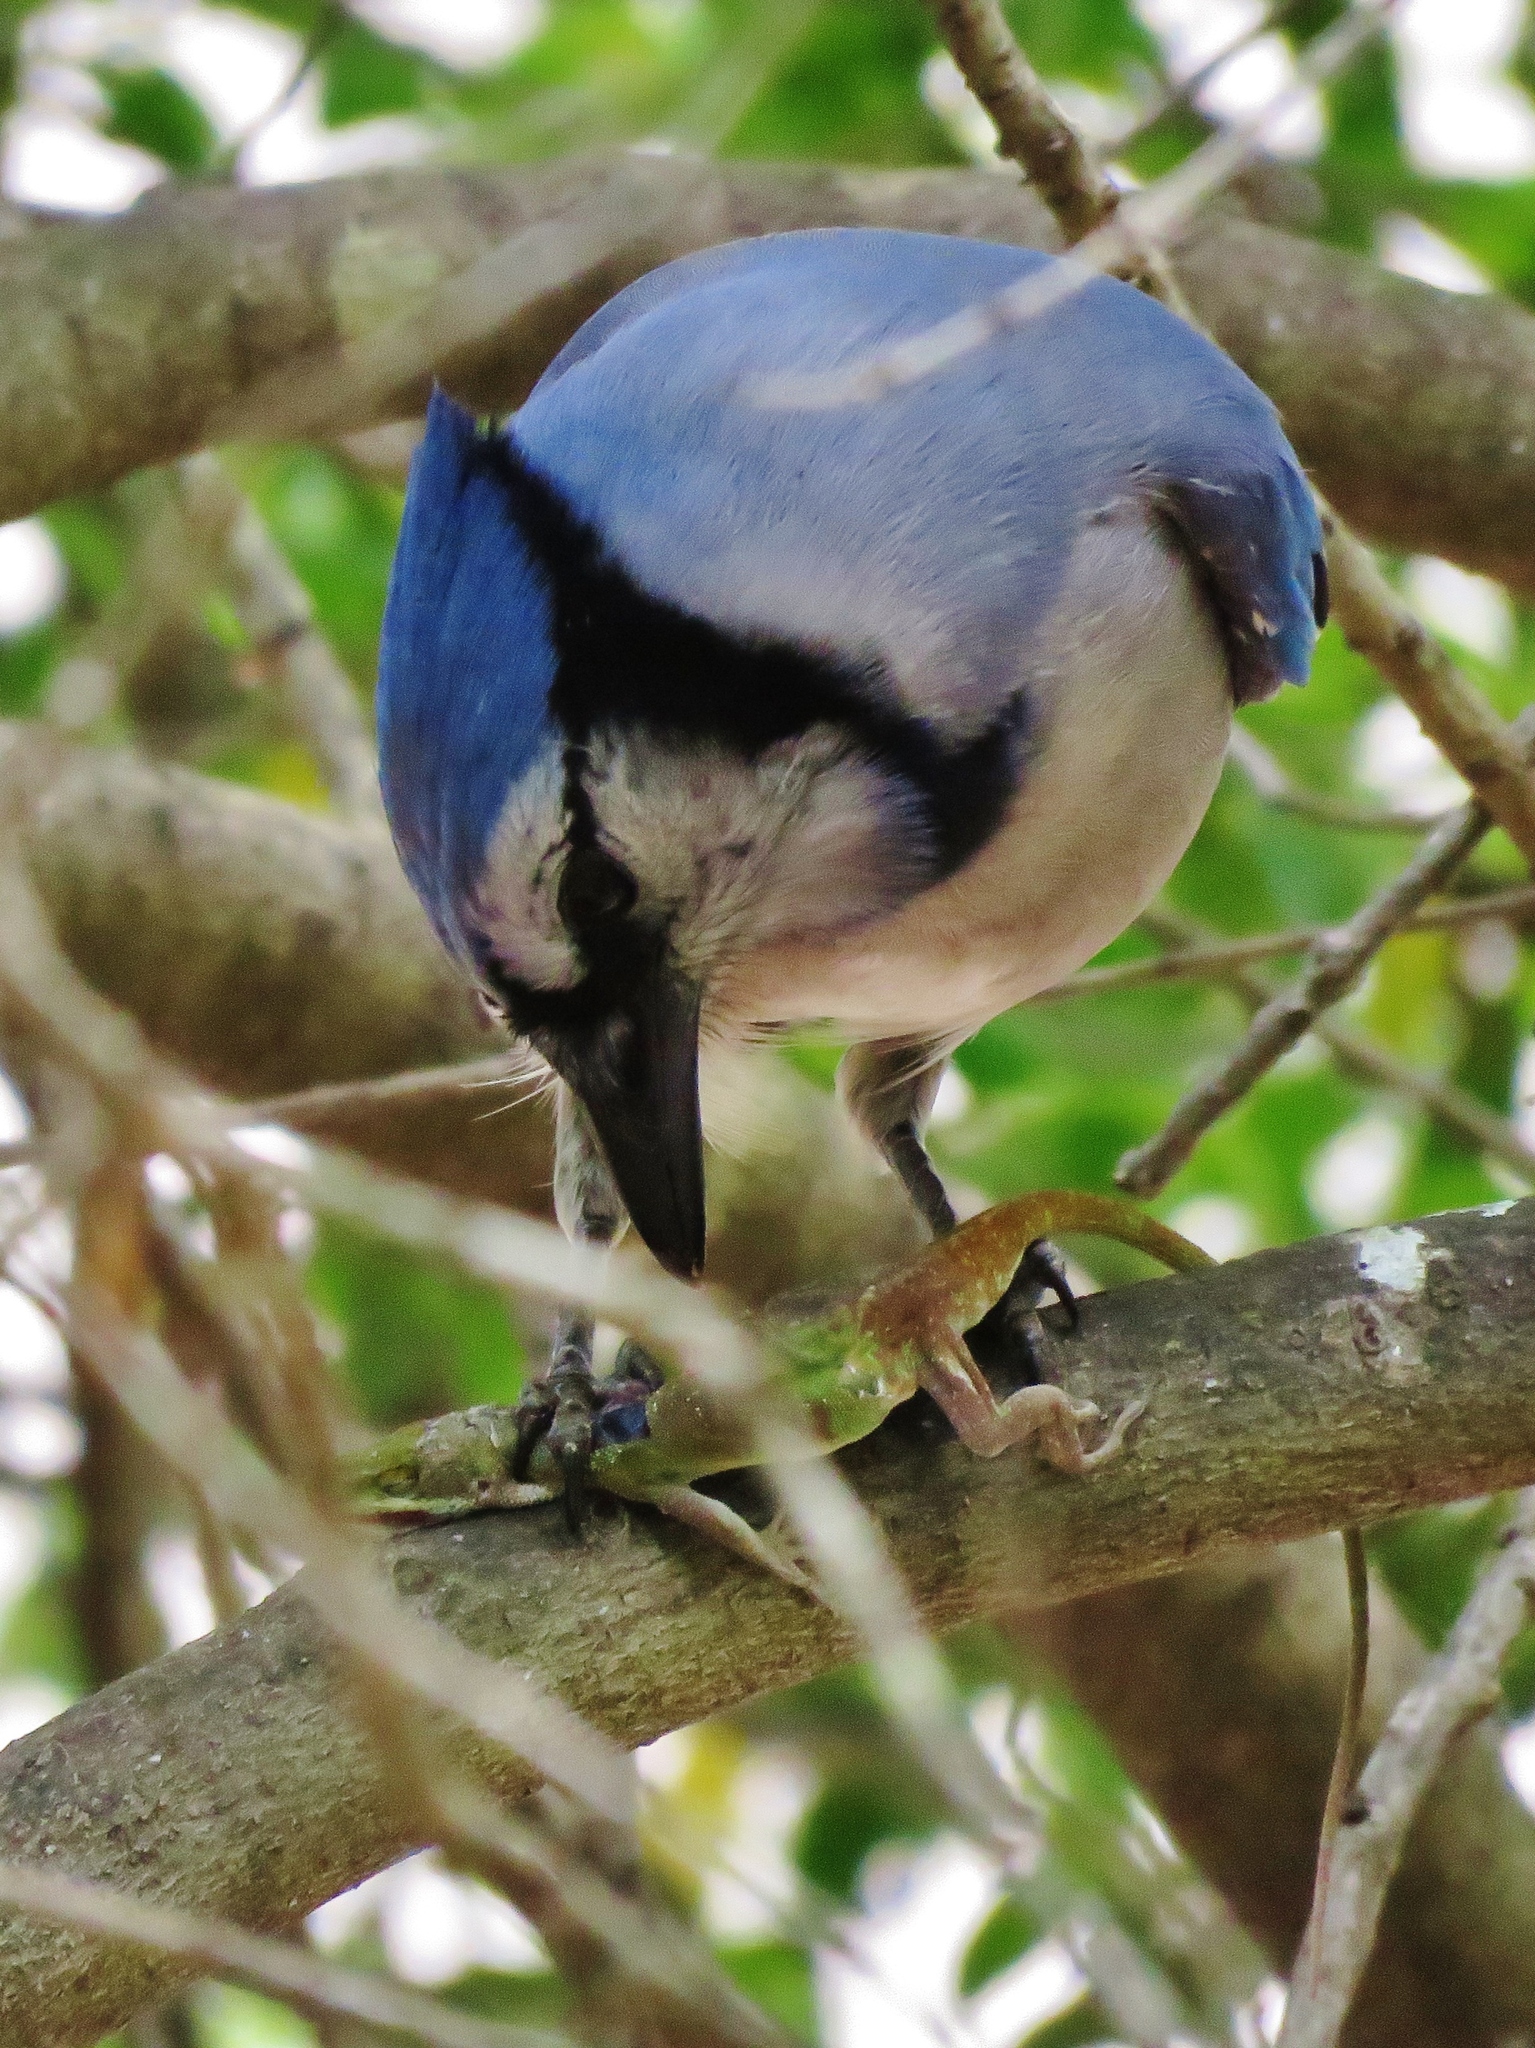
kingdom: Animalia
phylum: Chordata
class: Aves
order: Passeriformes
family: Corvidae
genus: Cyanocitta
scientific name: Cyanocitta cristata
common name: Blue jay
